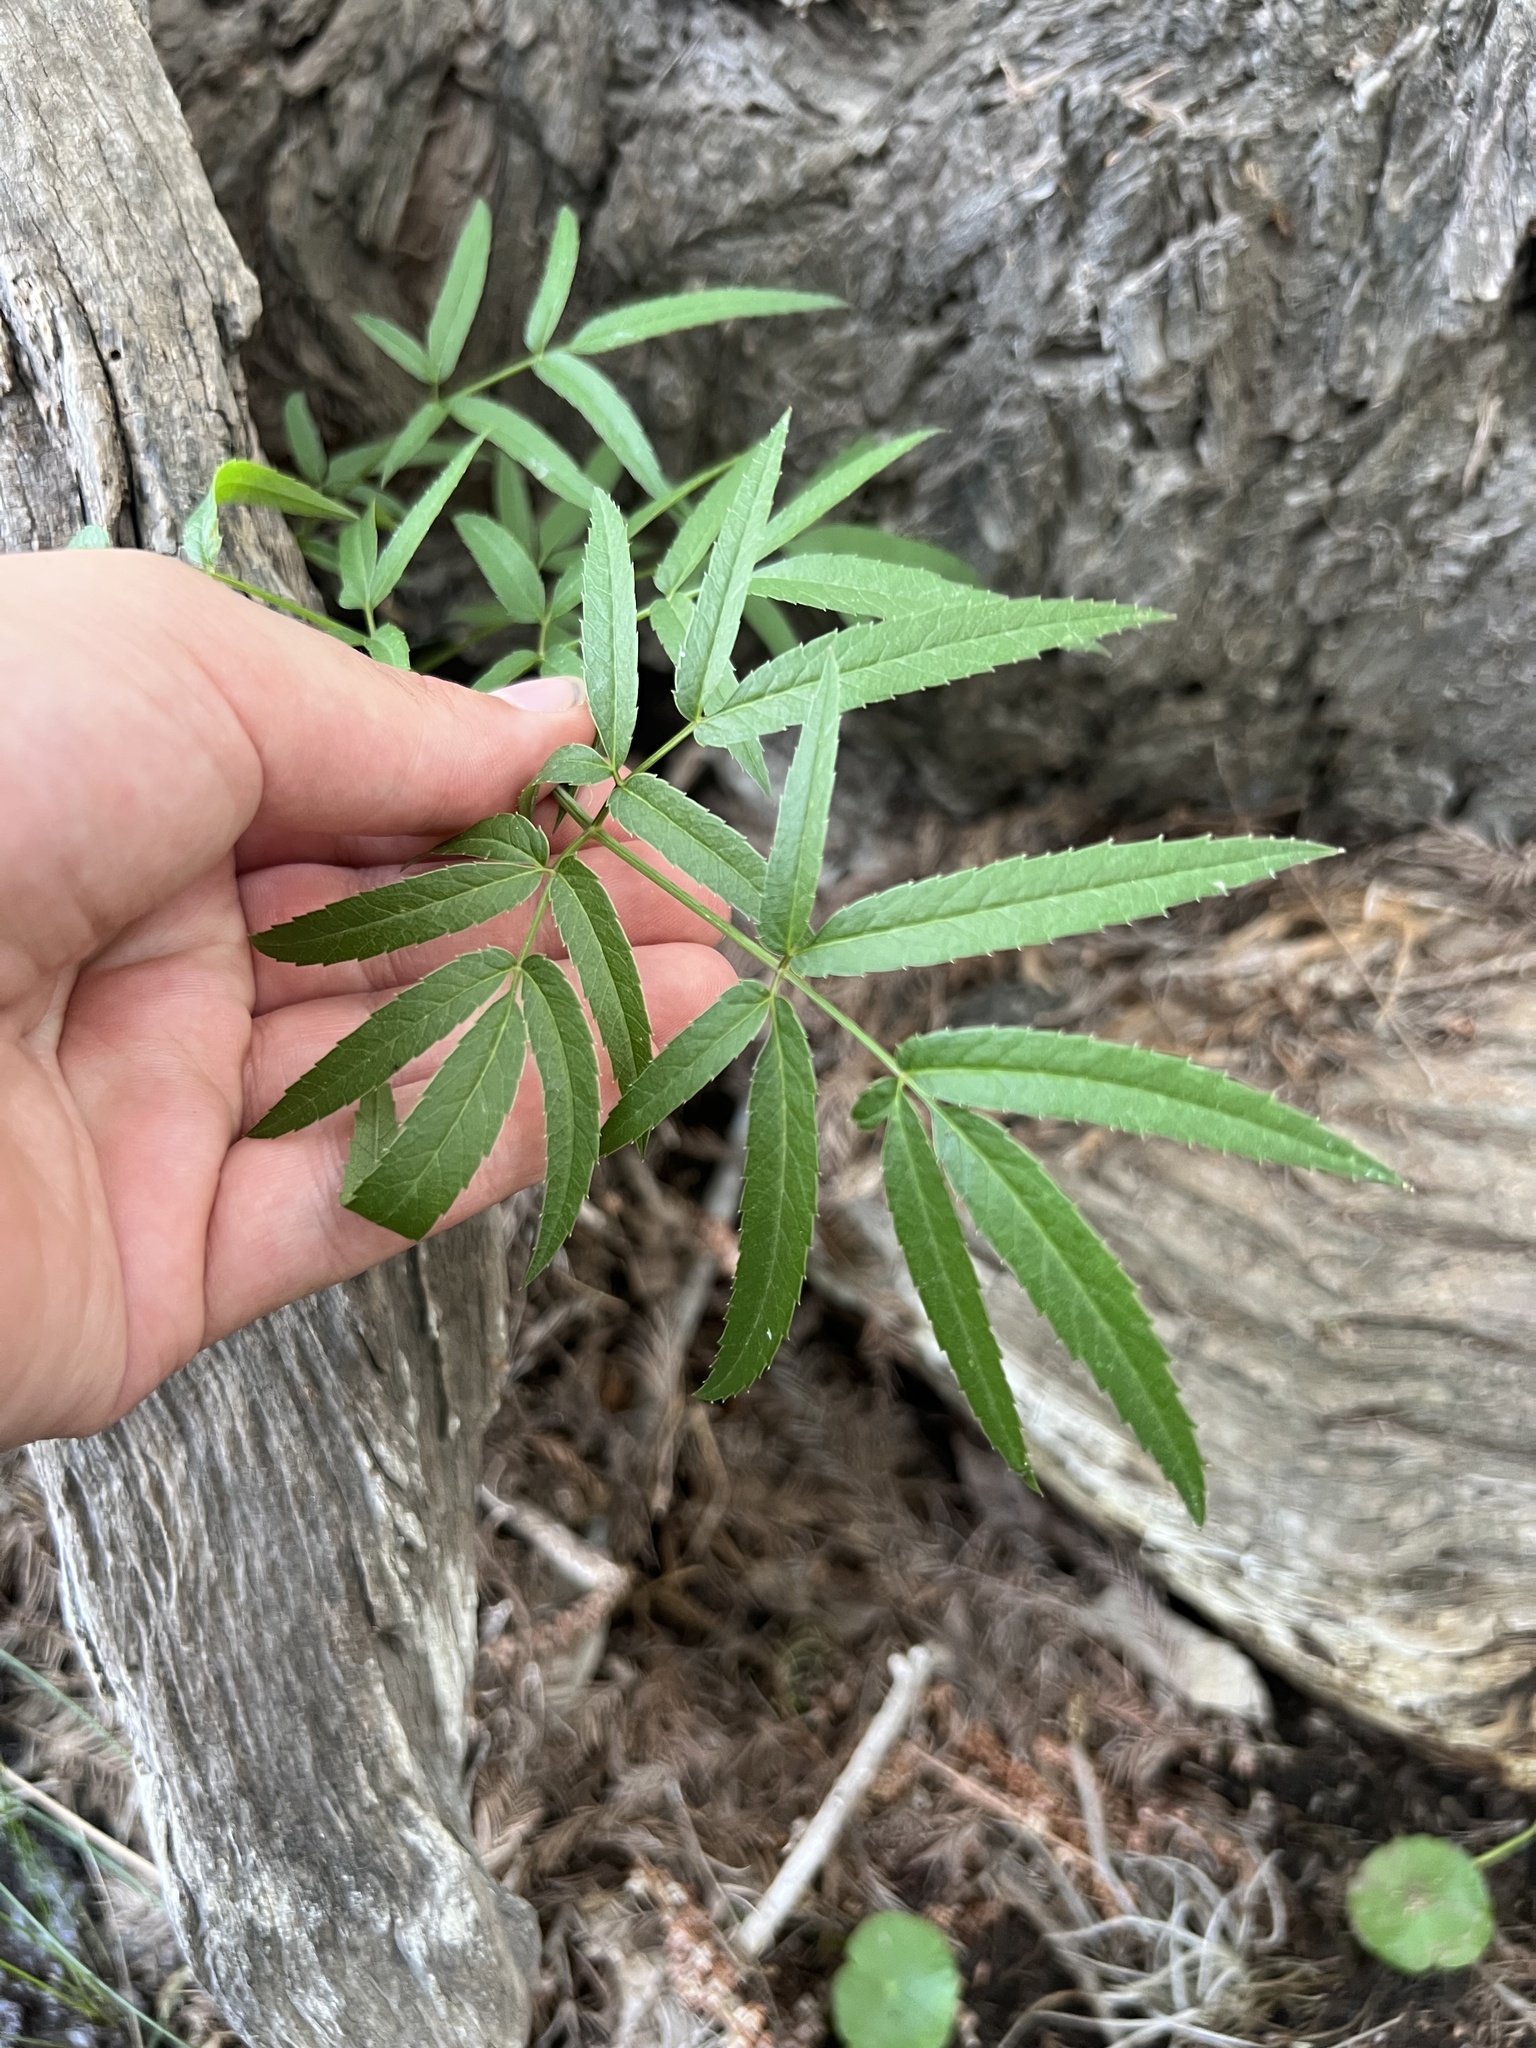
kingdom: Plantae
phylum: Tracheophyta
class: Magnoliopsida
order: Apiales
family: Apiaceae
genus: Cicuta
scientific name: Cicuta maculata
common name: Spotted cowbane
